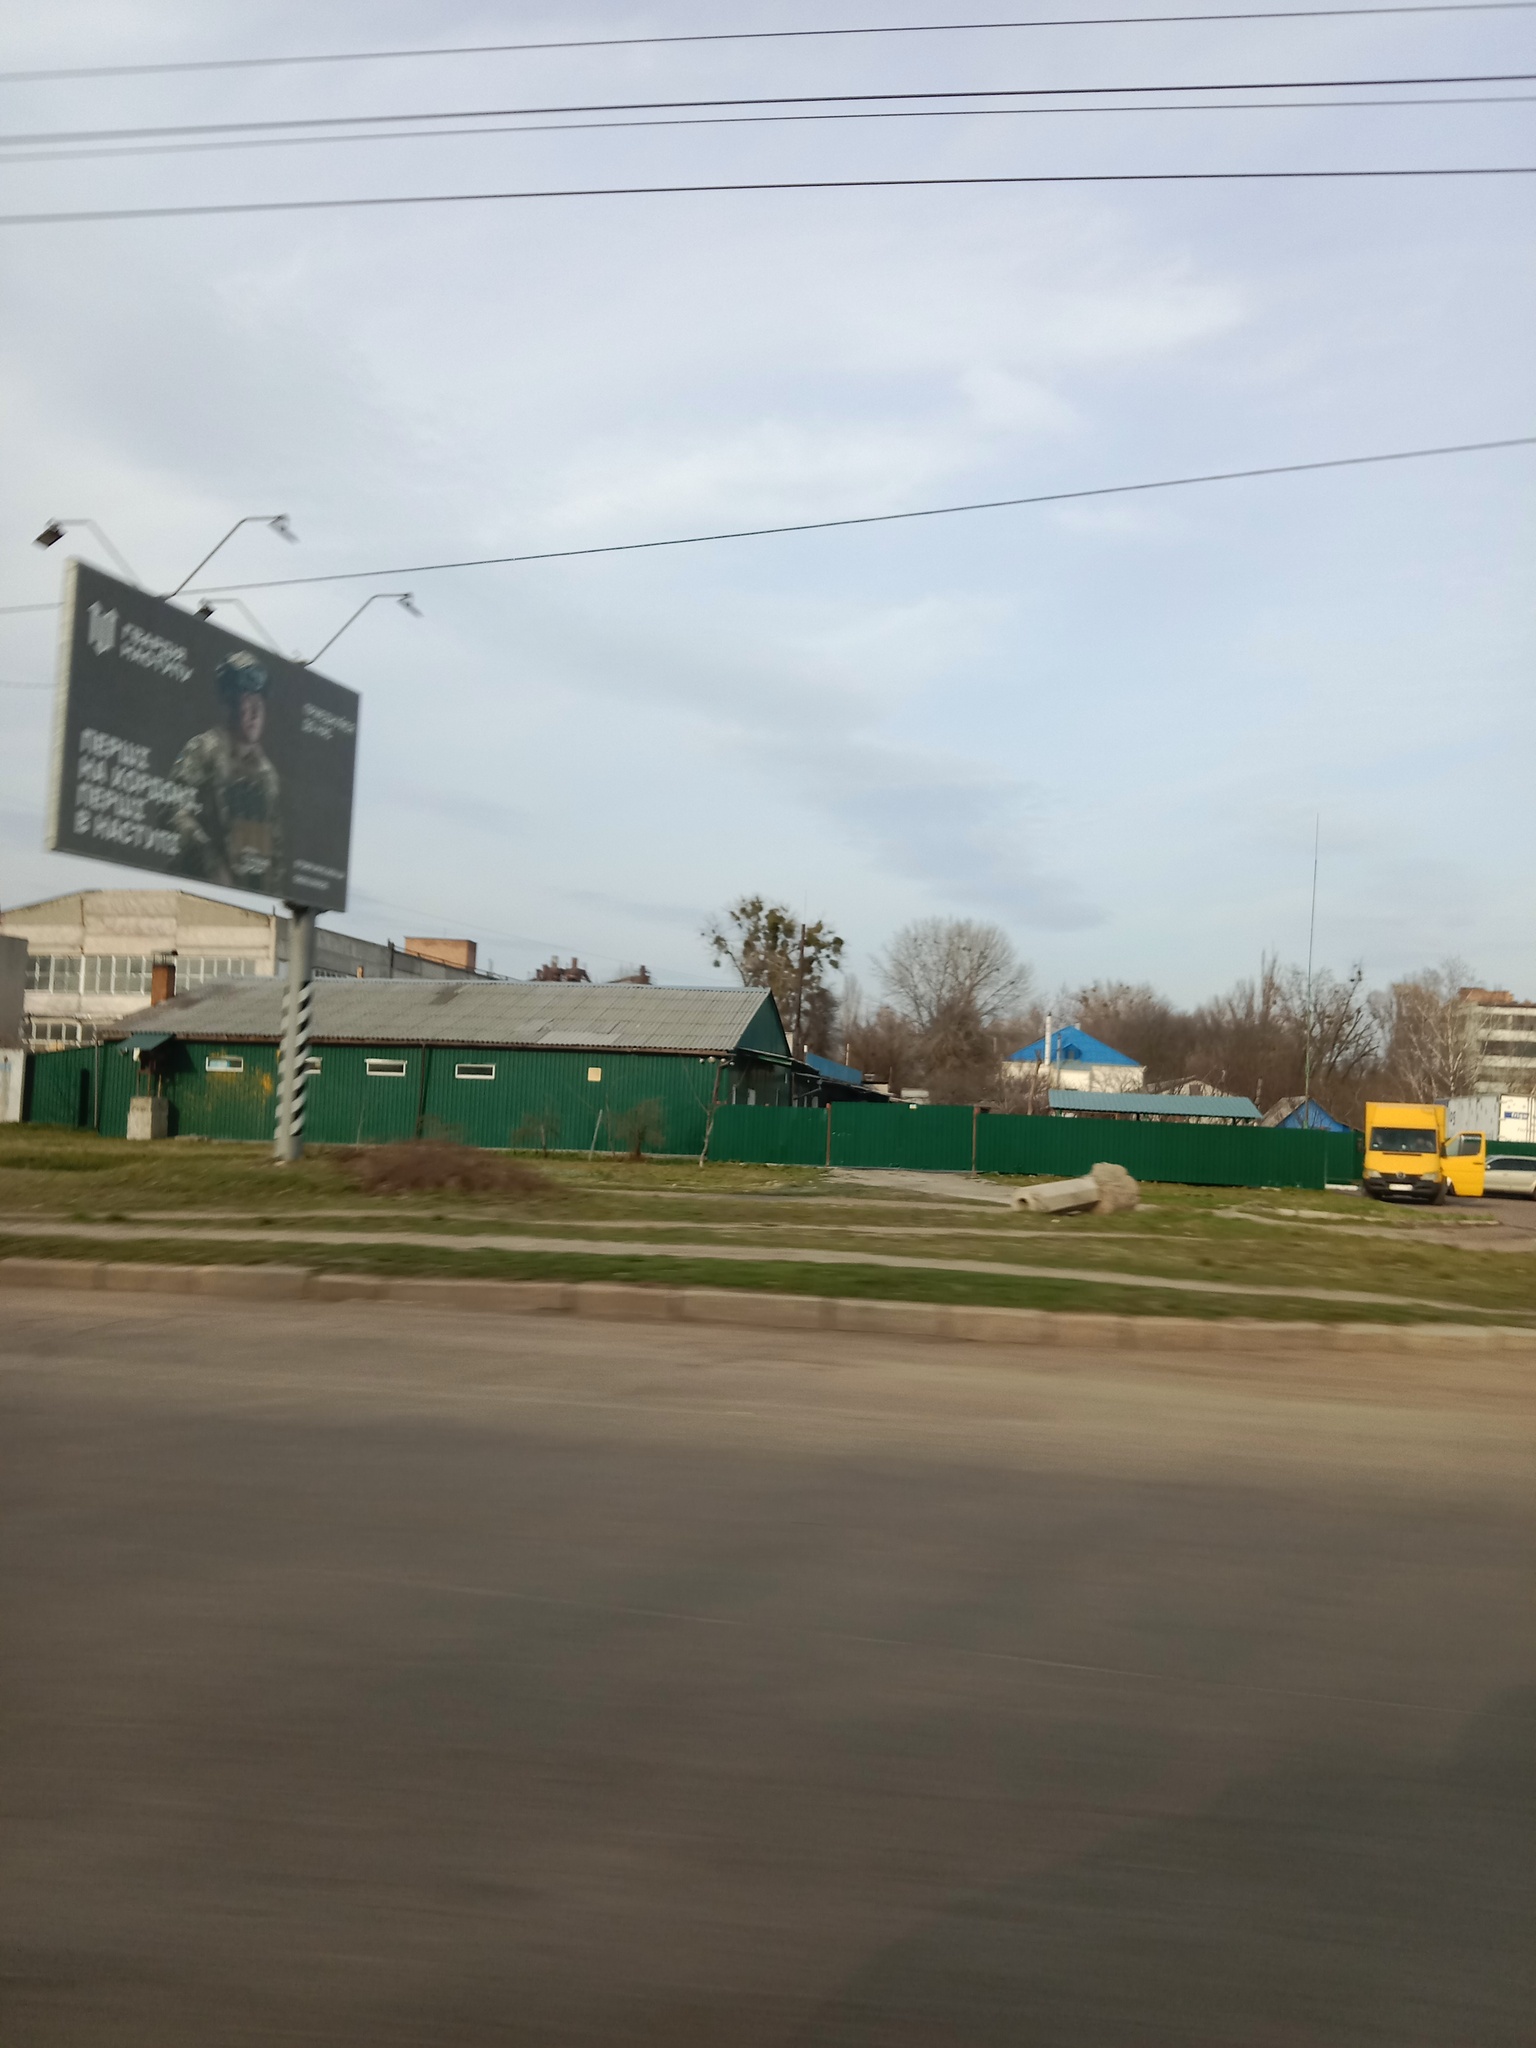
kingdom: Plantae
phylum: Tracheophyta
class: Magnoliopsida
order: Santalales
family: Viscaceae
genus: Viscum
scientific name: Viscum album
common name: Mistletoe
